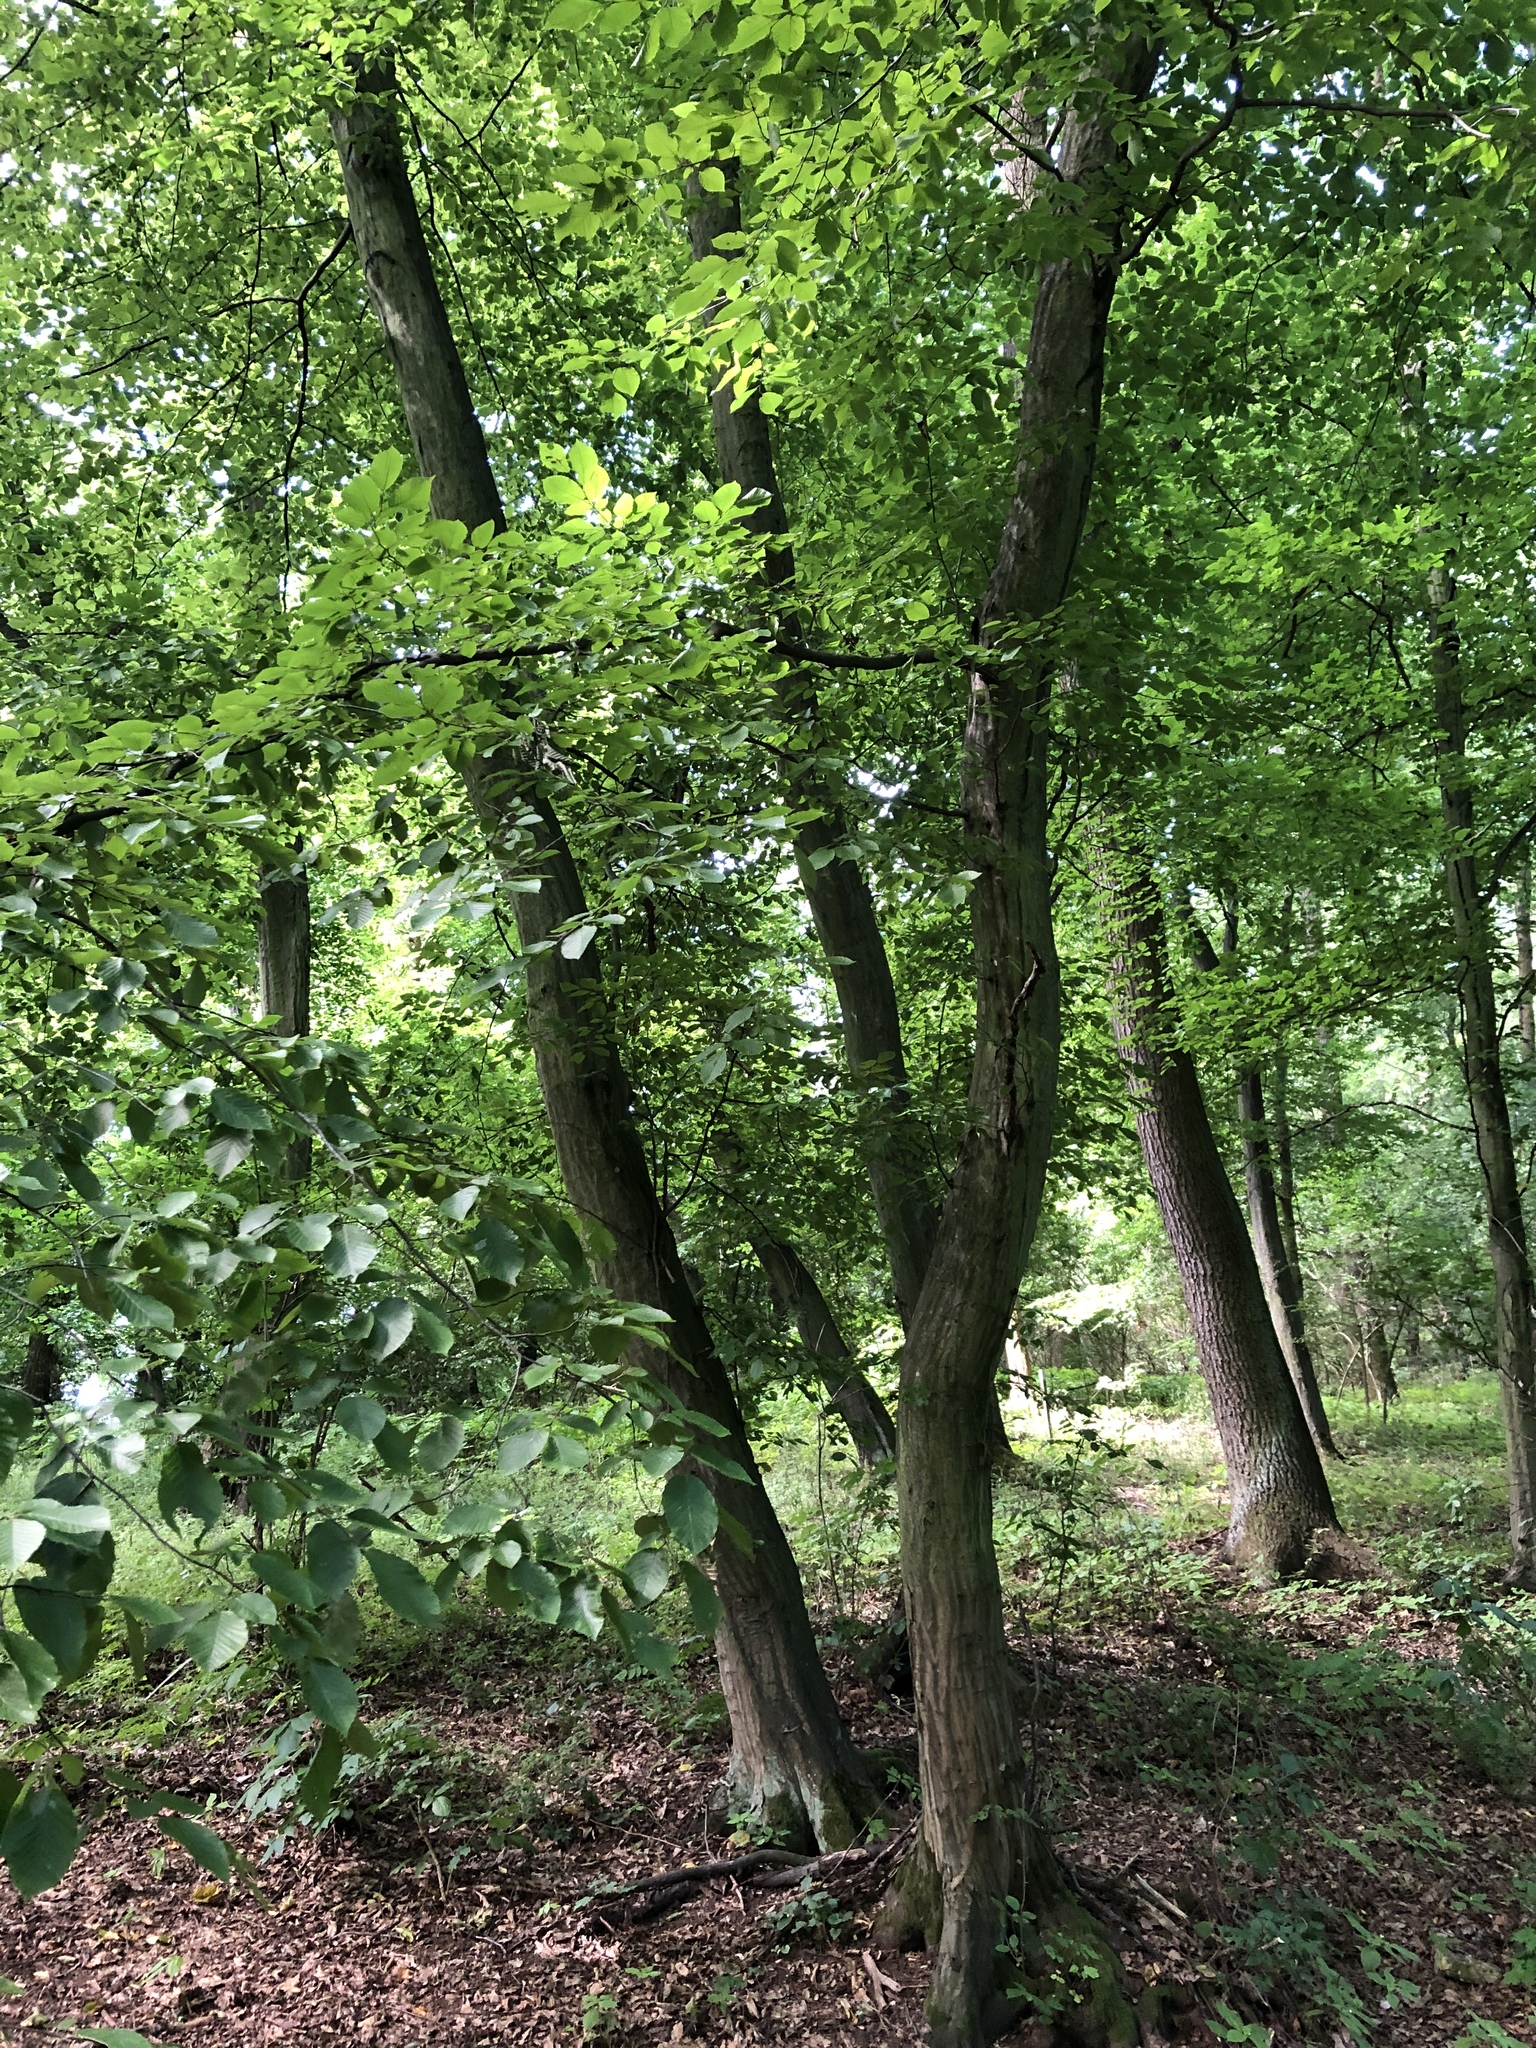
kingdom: Plantae
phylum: Tracheophyta
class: Magnoliopsida
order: Fagales
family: Betulaceae
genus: Carpinus
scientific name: Carpinus betulus
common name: Hornbeam
